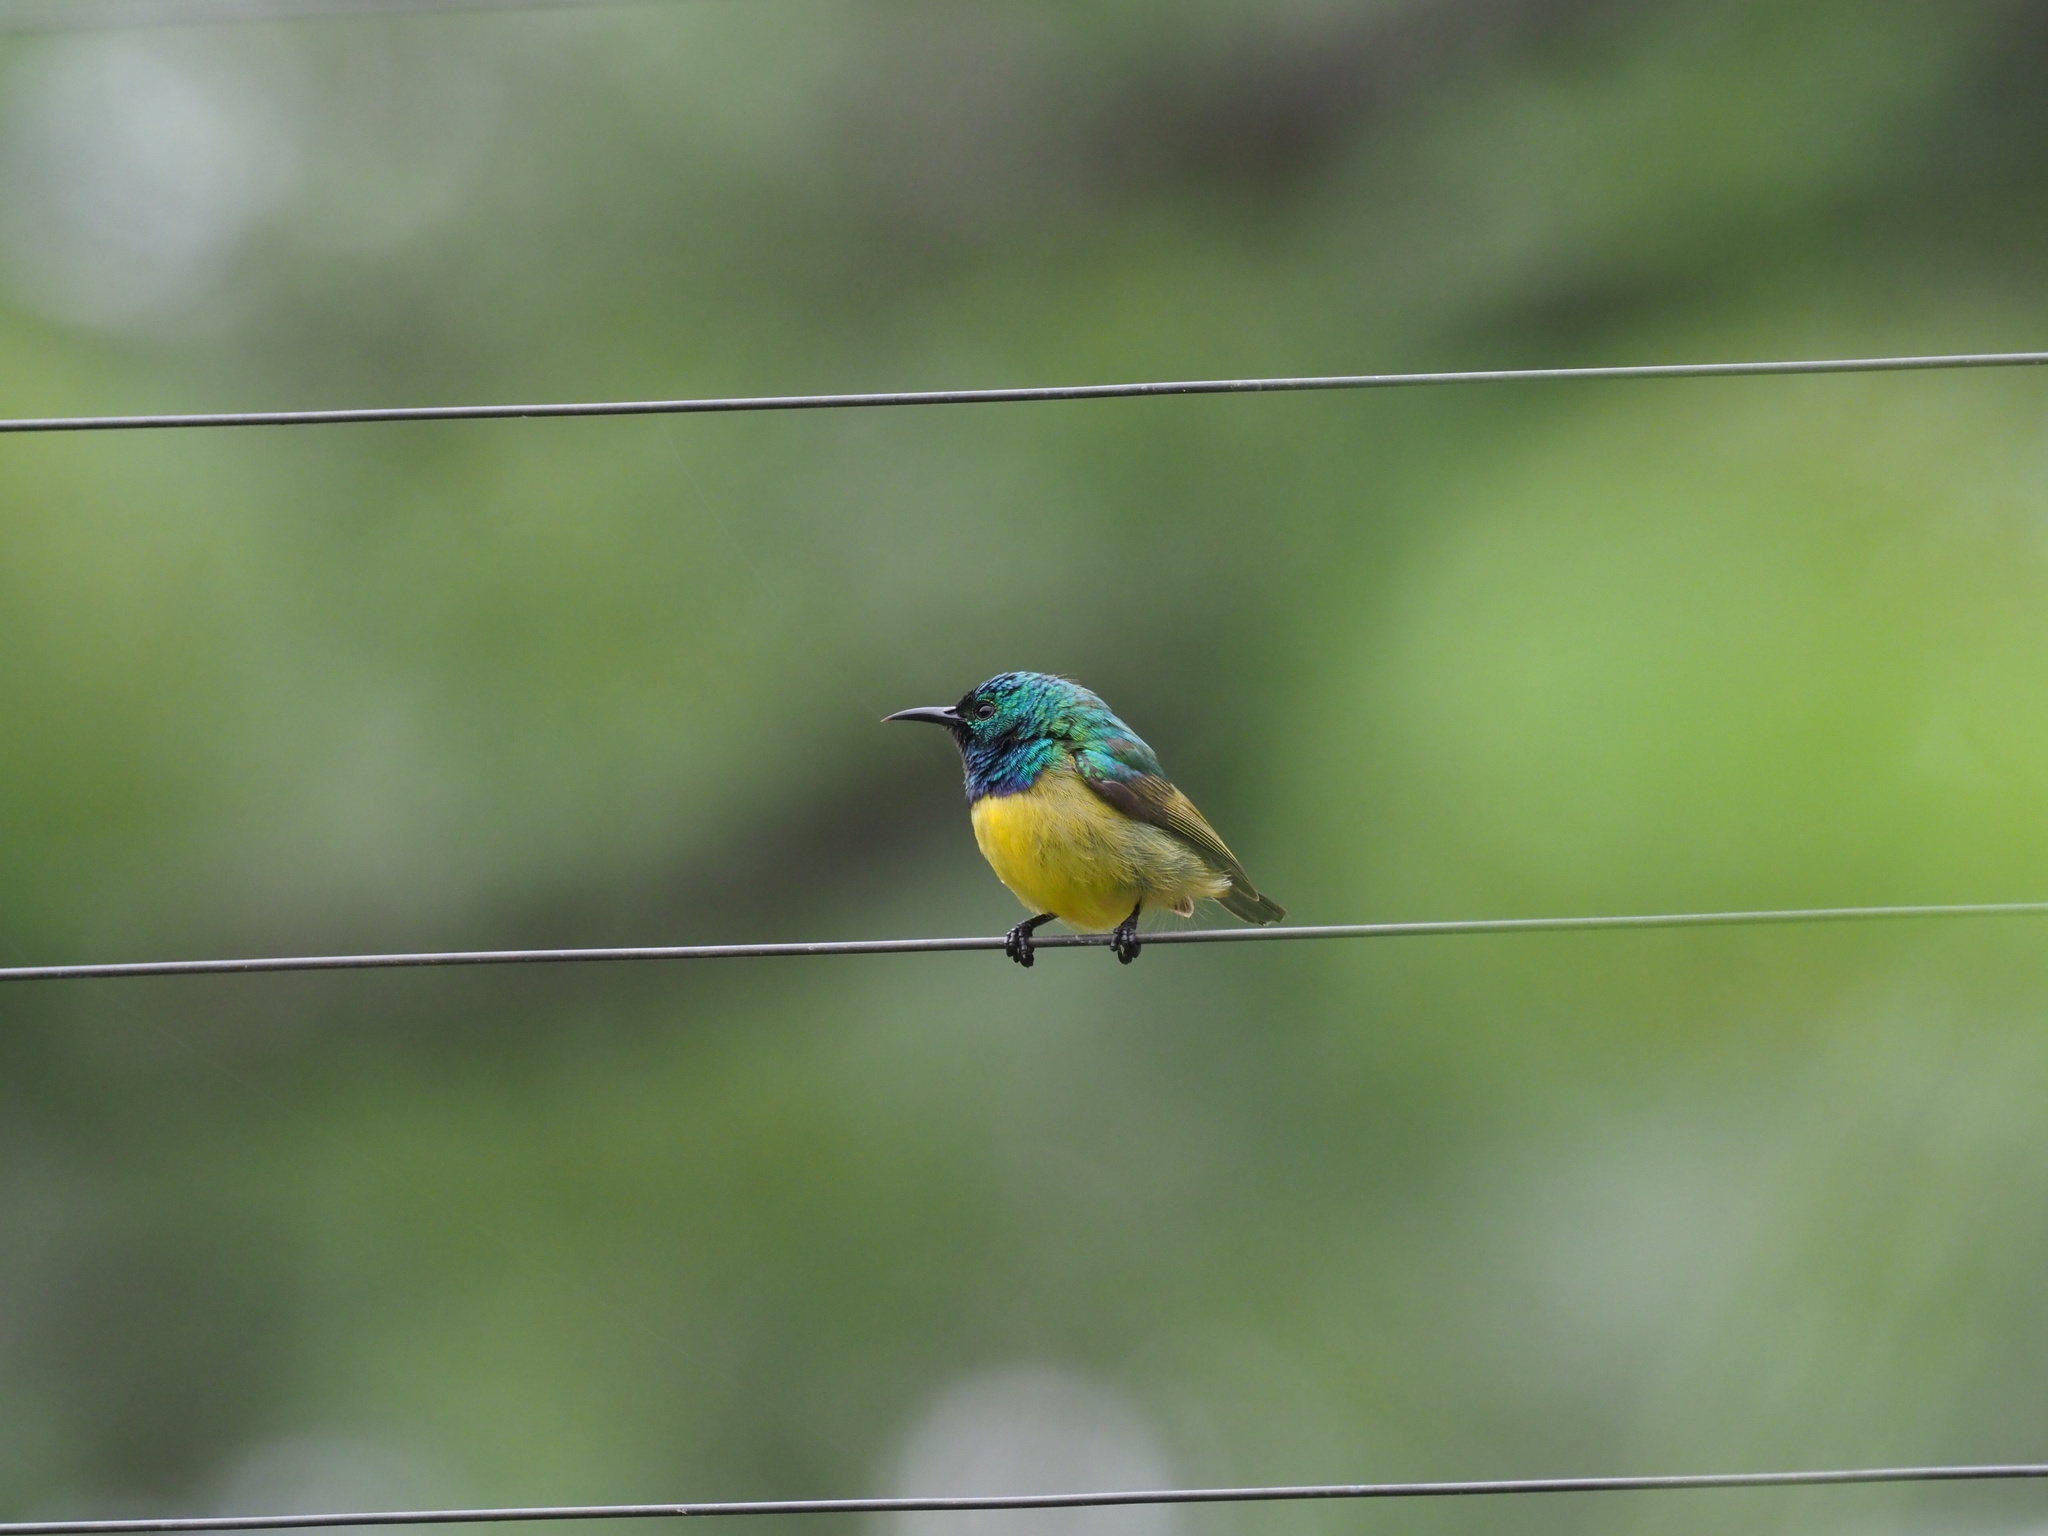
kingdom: Animalia
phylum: Chordata
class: Aves
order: Passeriformes
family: Nectariniidae
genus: Hedydipna
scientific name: Hedydipna collaris
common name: Collared sunbird
